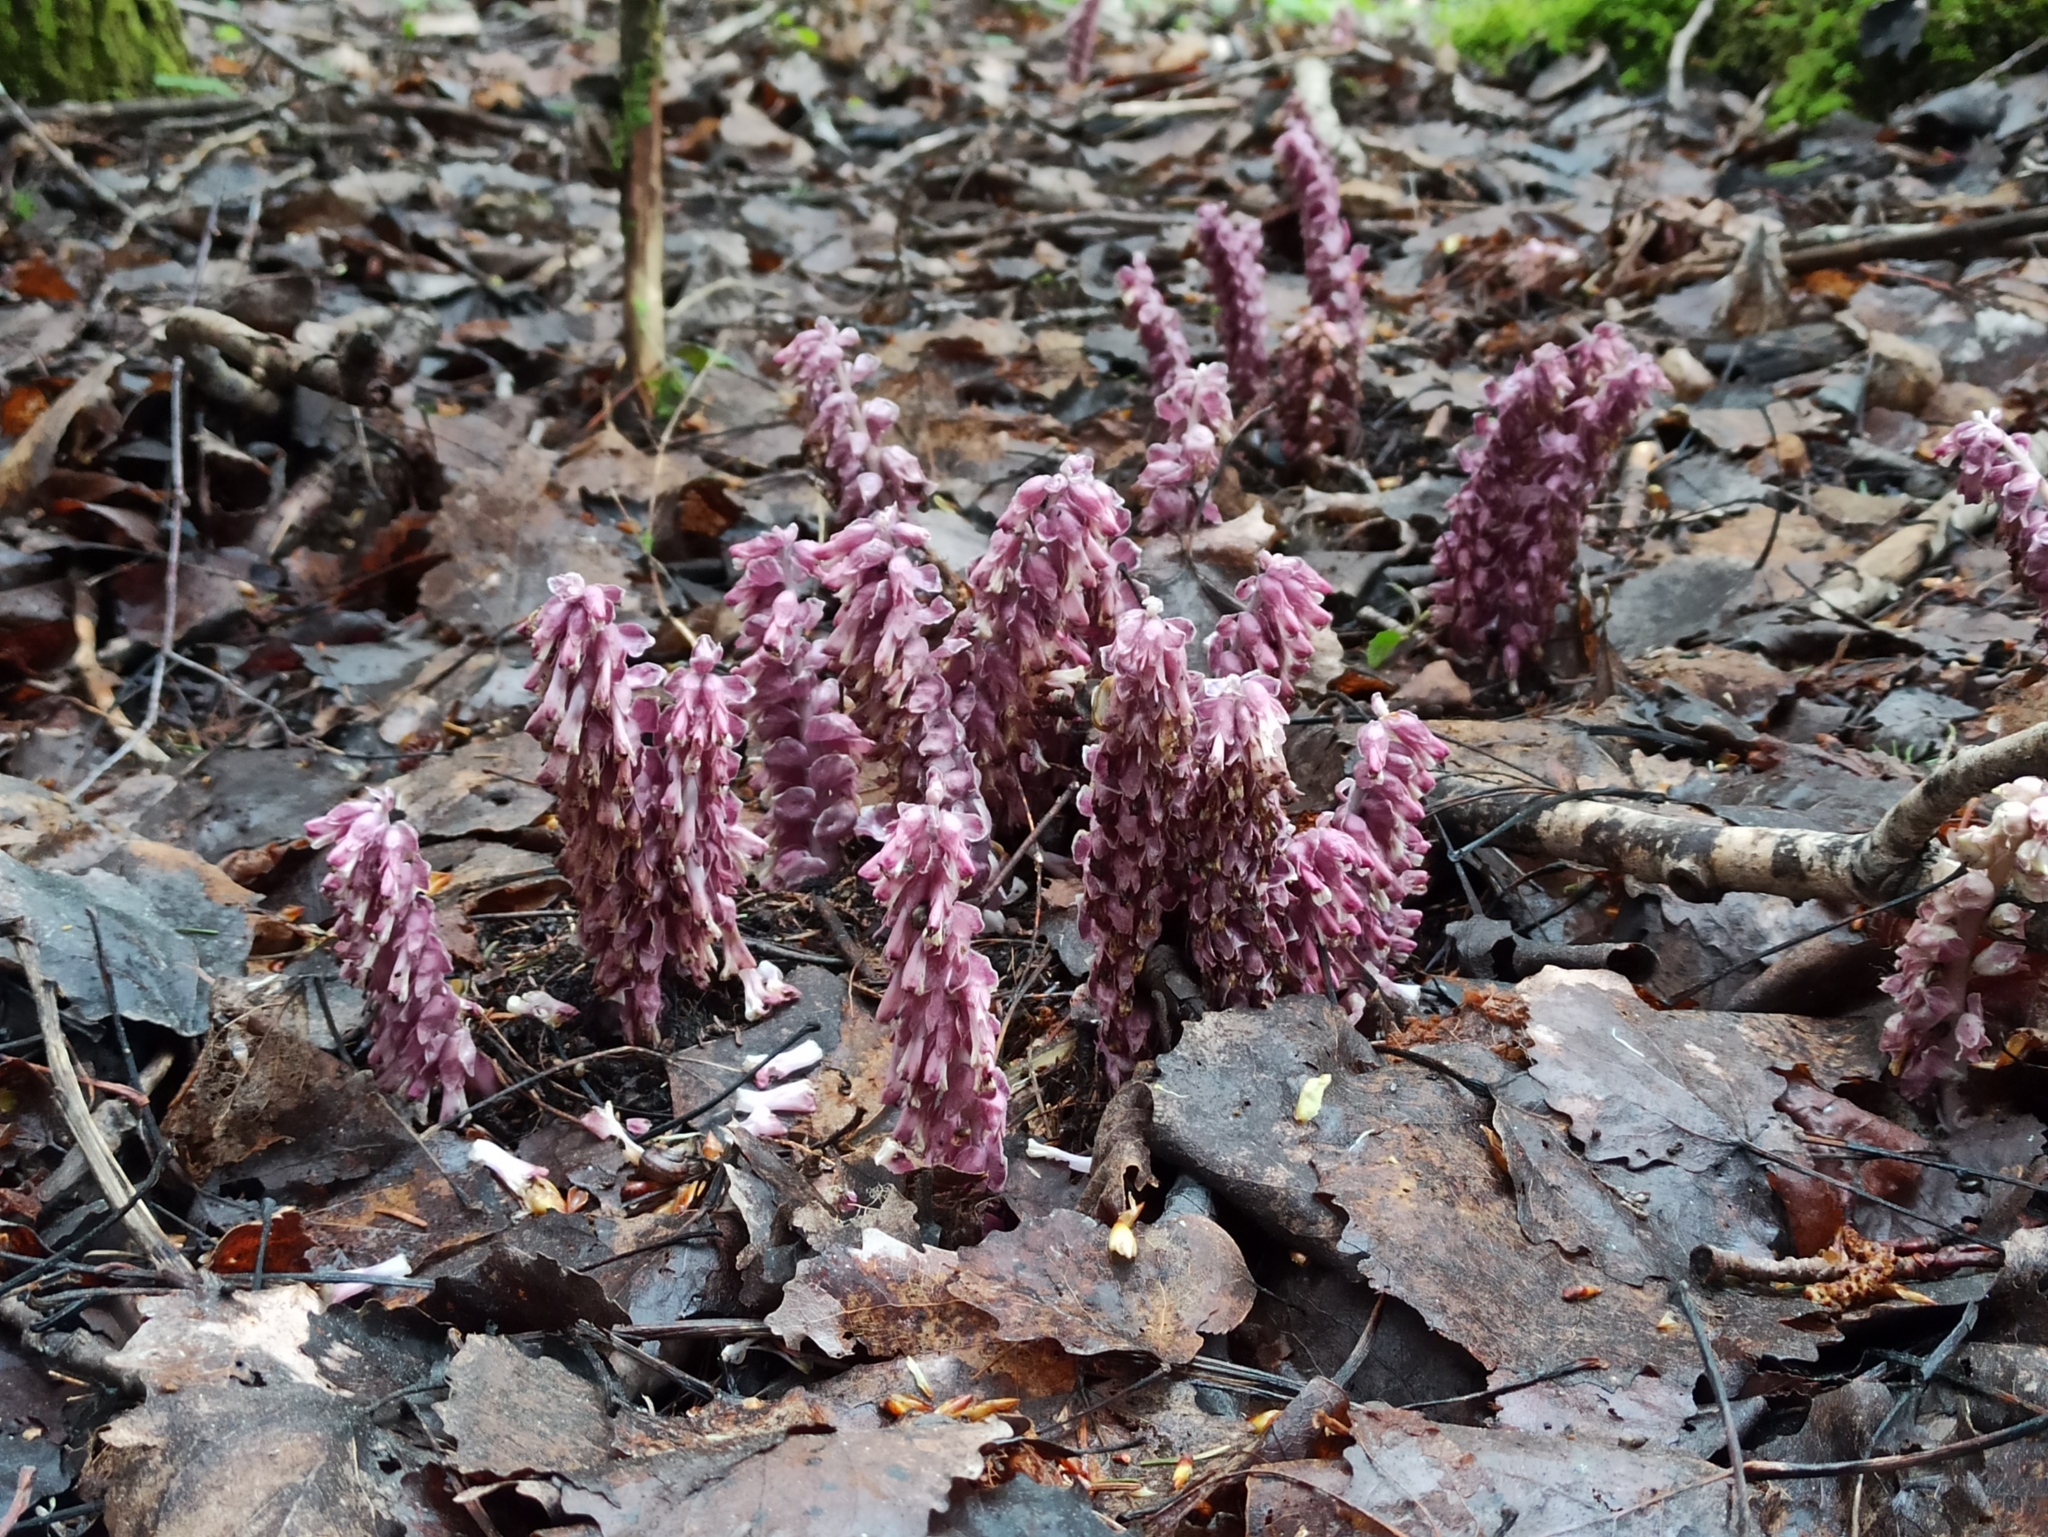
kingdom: Plantae
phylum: Tracheophyta
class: Magnoliopsida
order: Lamiales
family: Orobanchaceae
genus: Lathraea
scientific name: Lathraea squamaria
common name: Toothwort
